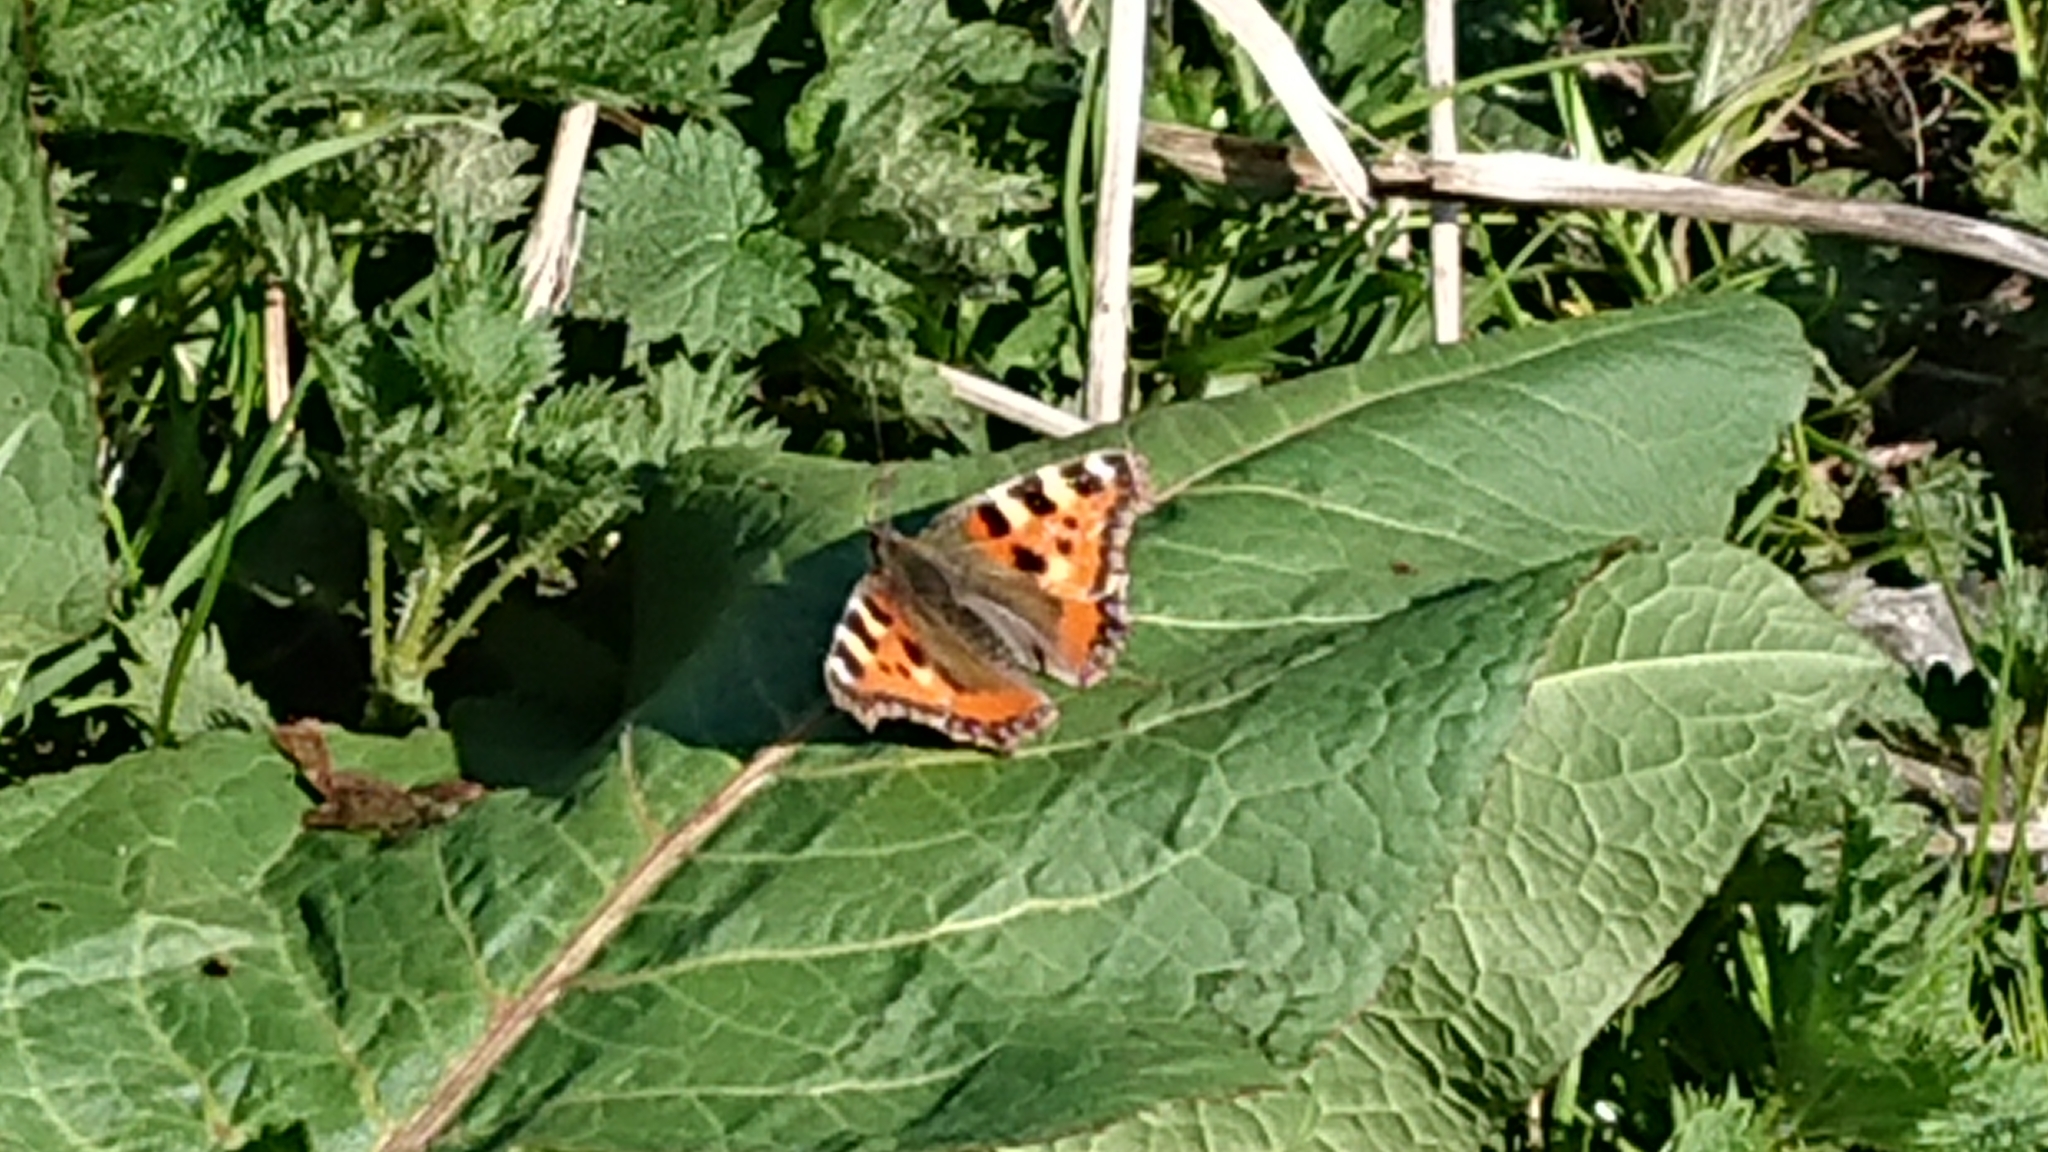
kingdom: Animalia
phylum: Arthropoda
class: Insecta
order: Lepidoptera
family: Nymphalidae
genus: Aglais
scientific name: Aglais urticae
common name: Small tortoiseshell
